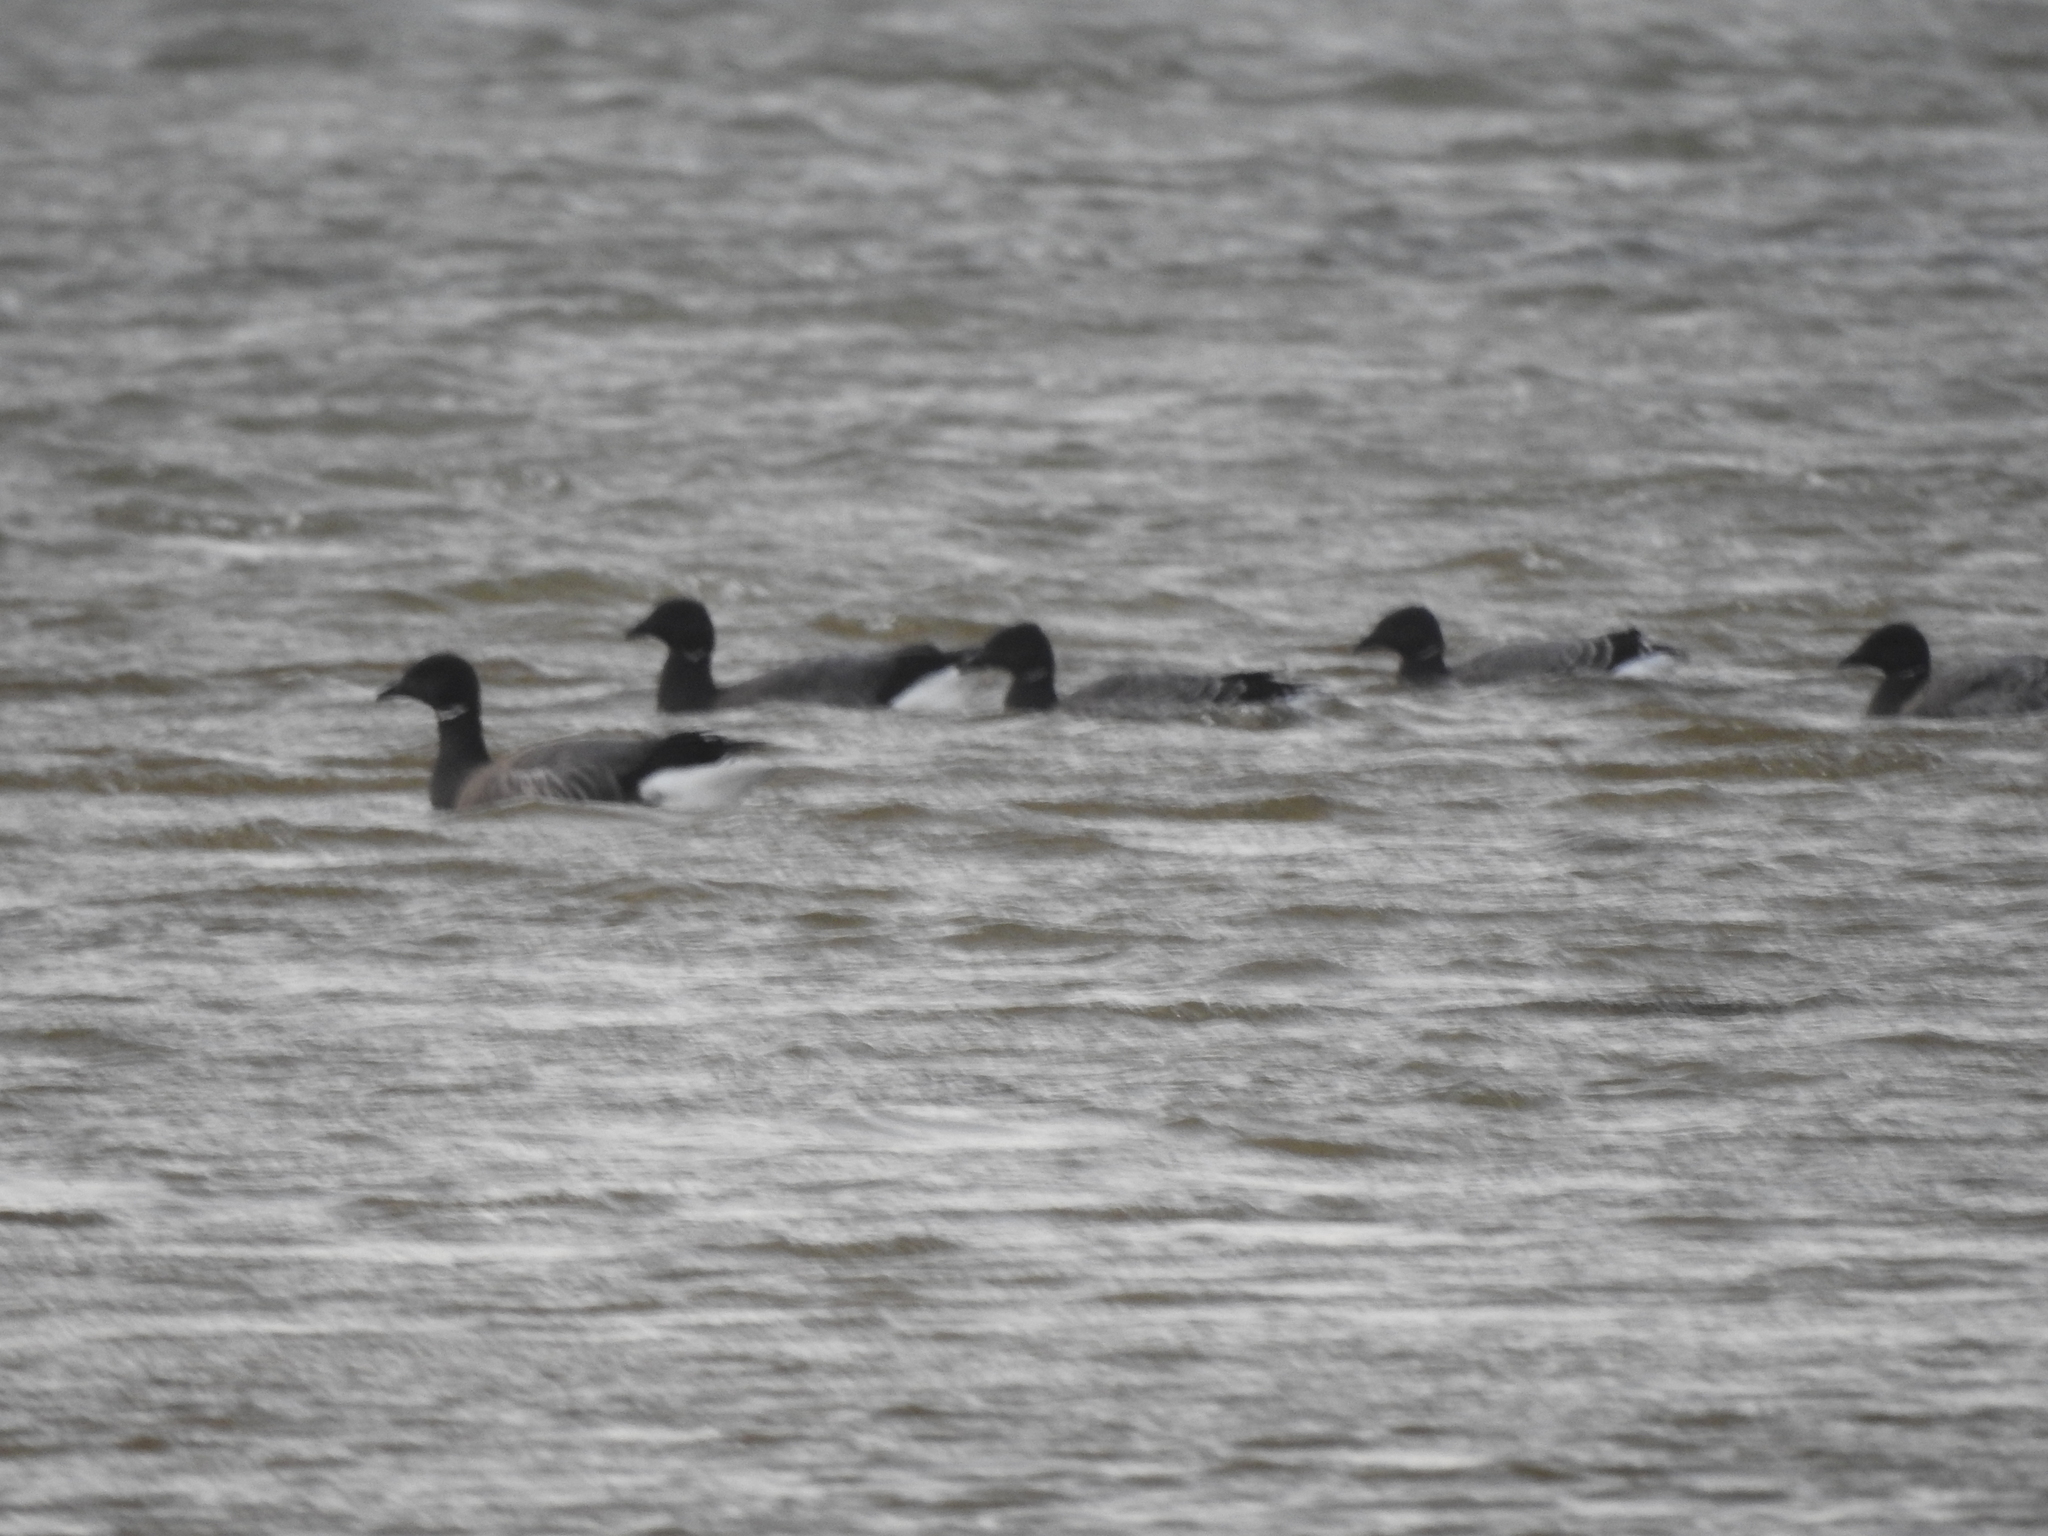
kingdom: Animalia
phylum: Chordata
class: Aves
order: Anseriformes
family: Anatidae
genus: Branta
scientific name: Branta bernicla
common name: Brant goose
